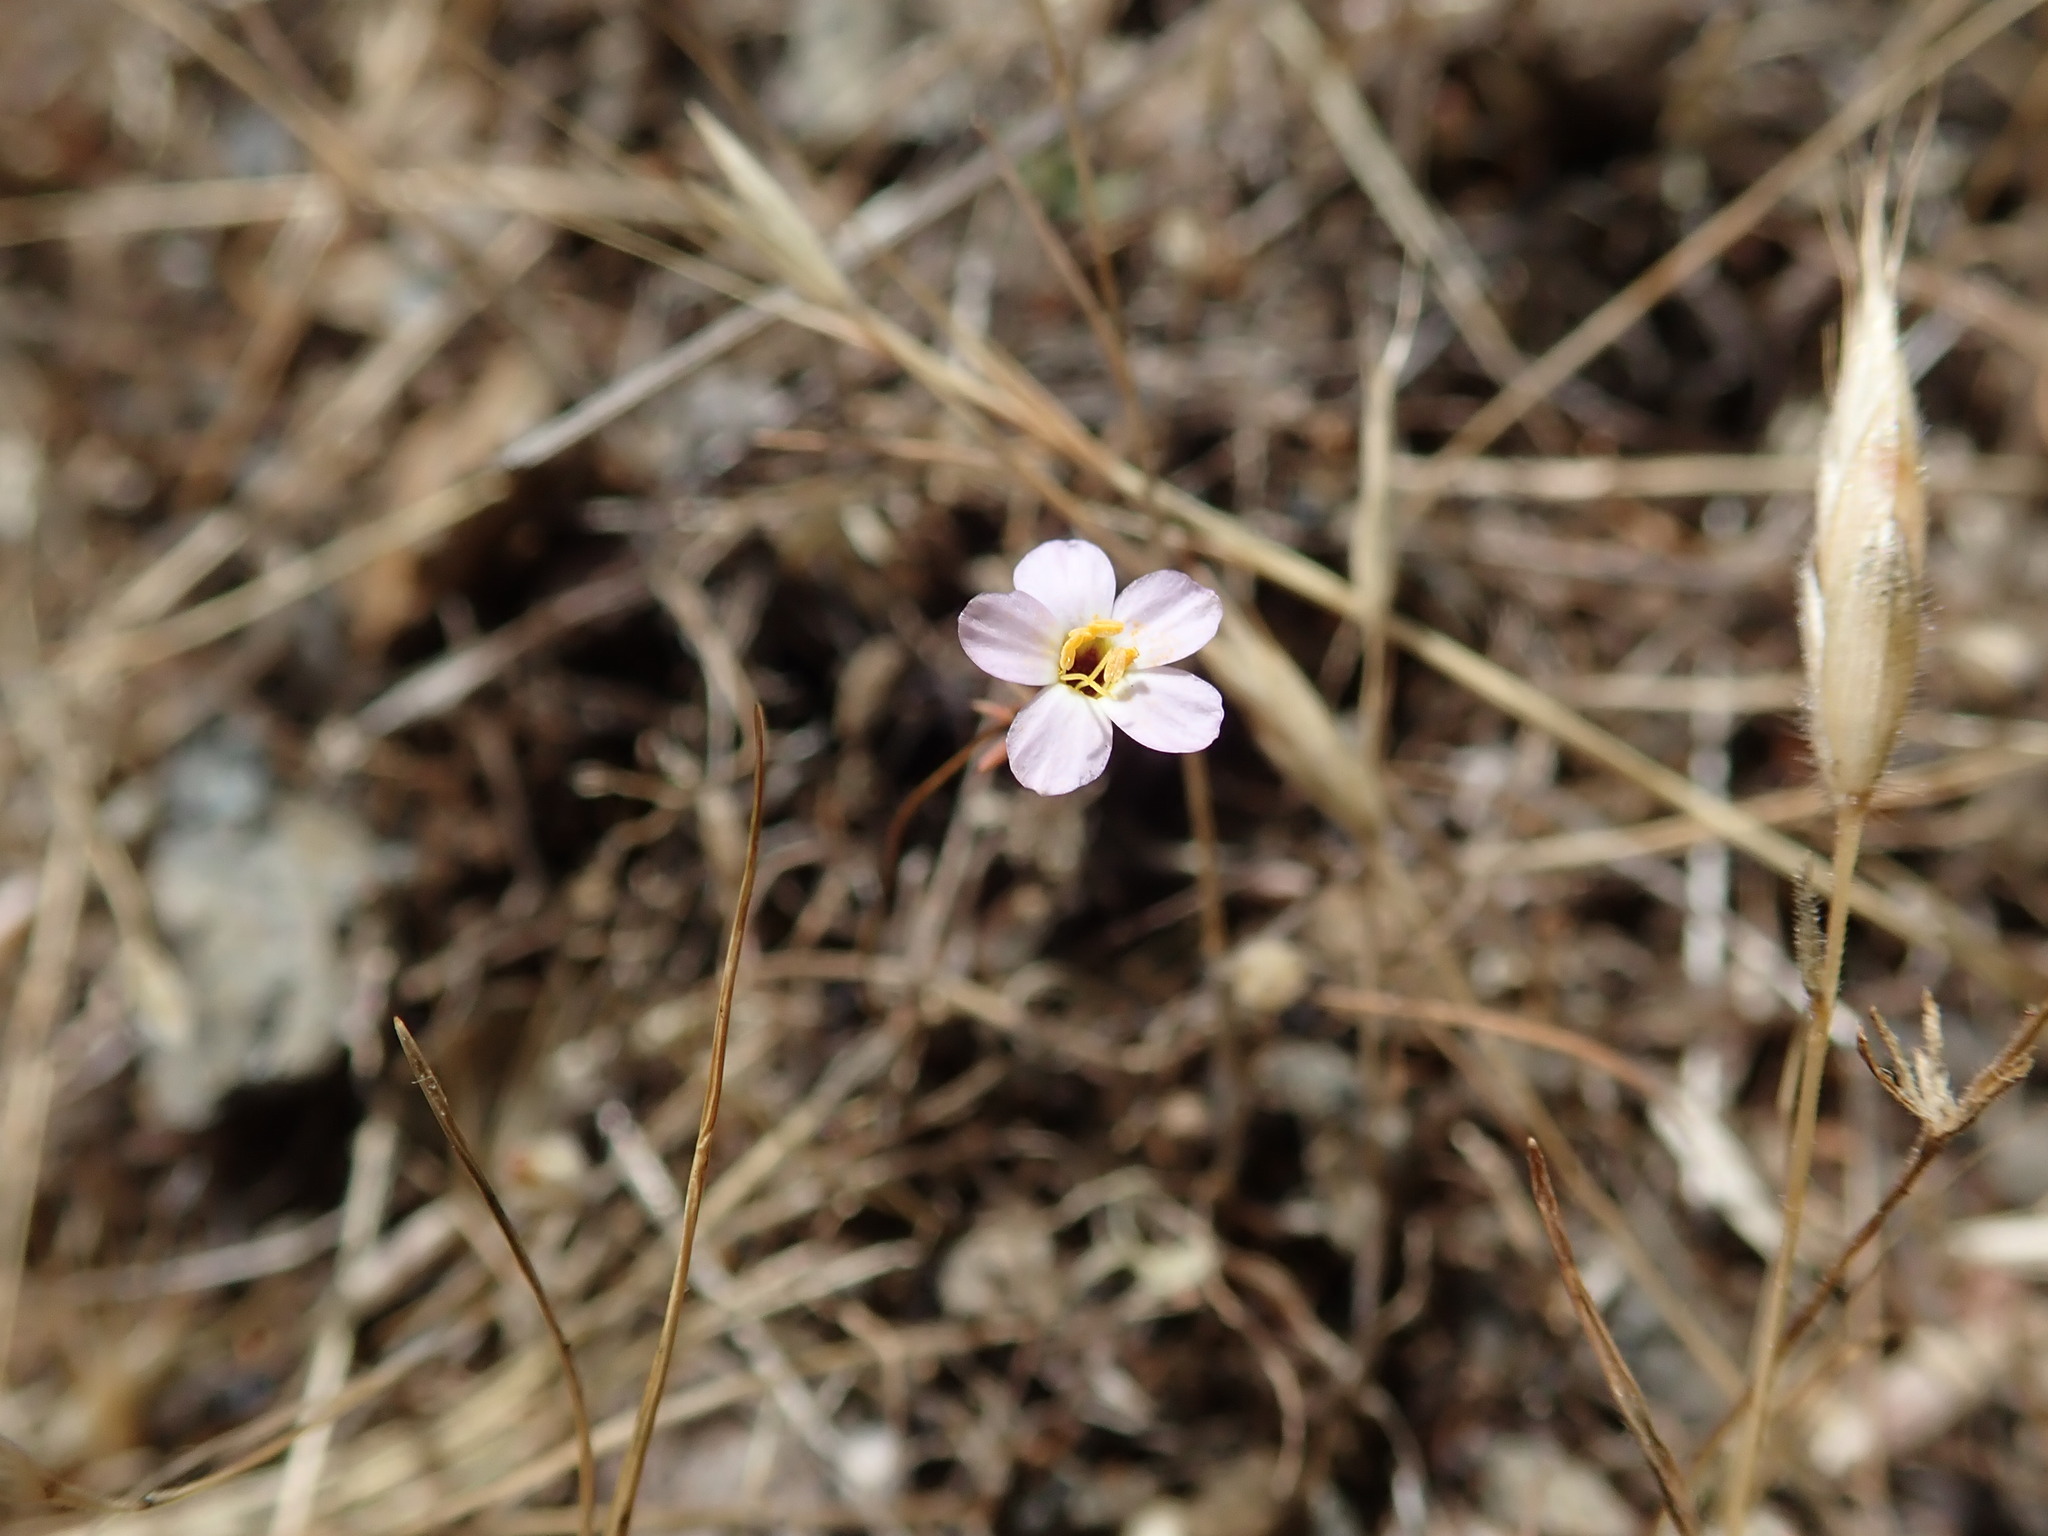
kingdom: Plantae
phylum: Tracheophyta
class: Magnoliopsida
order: Ericales
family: Polemoniaceae
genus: Leptosiphon
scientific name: Leptosiphon ambiguus
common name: Serpentine linanthus
